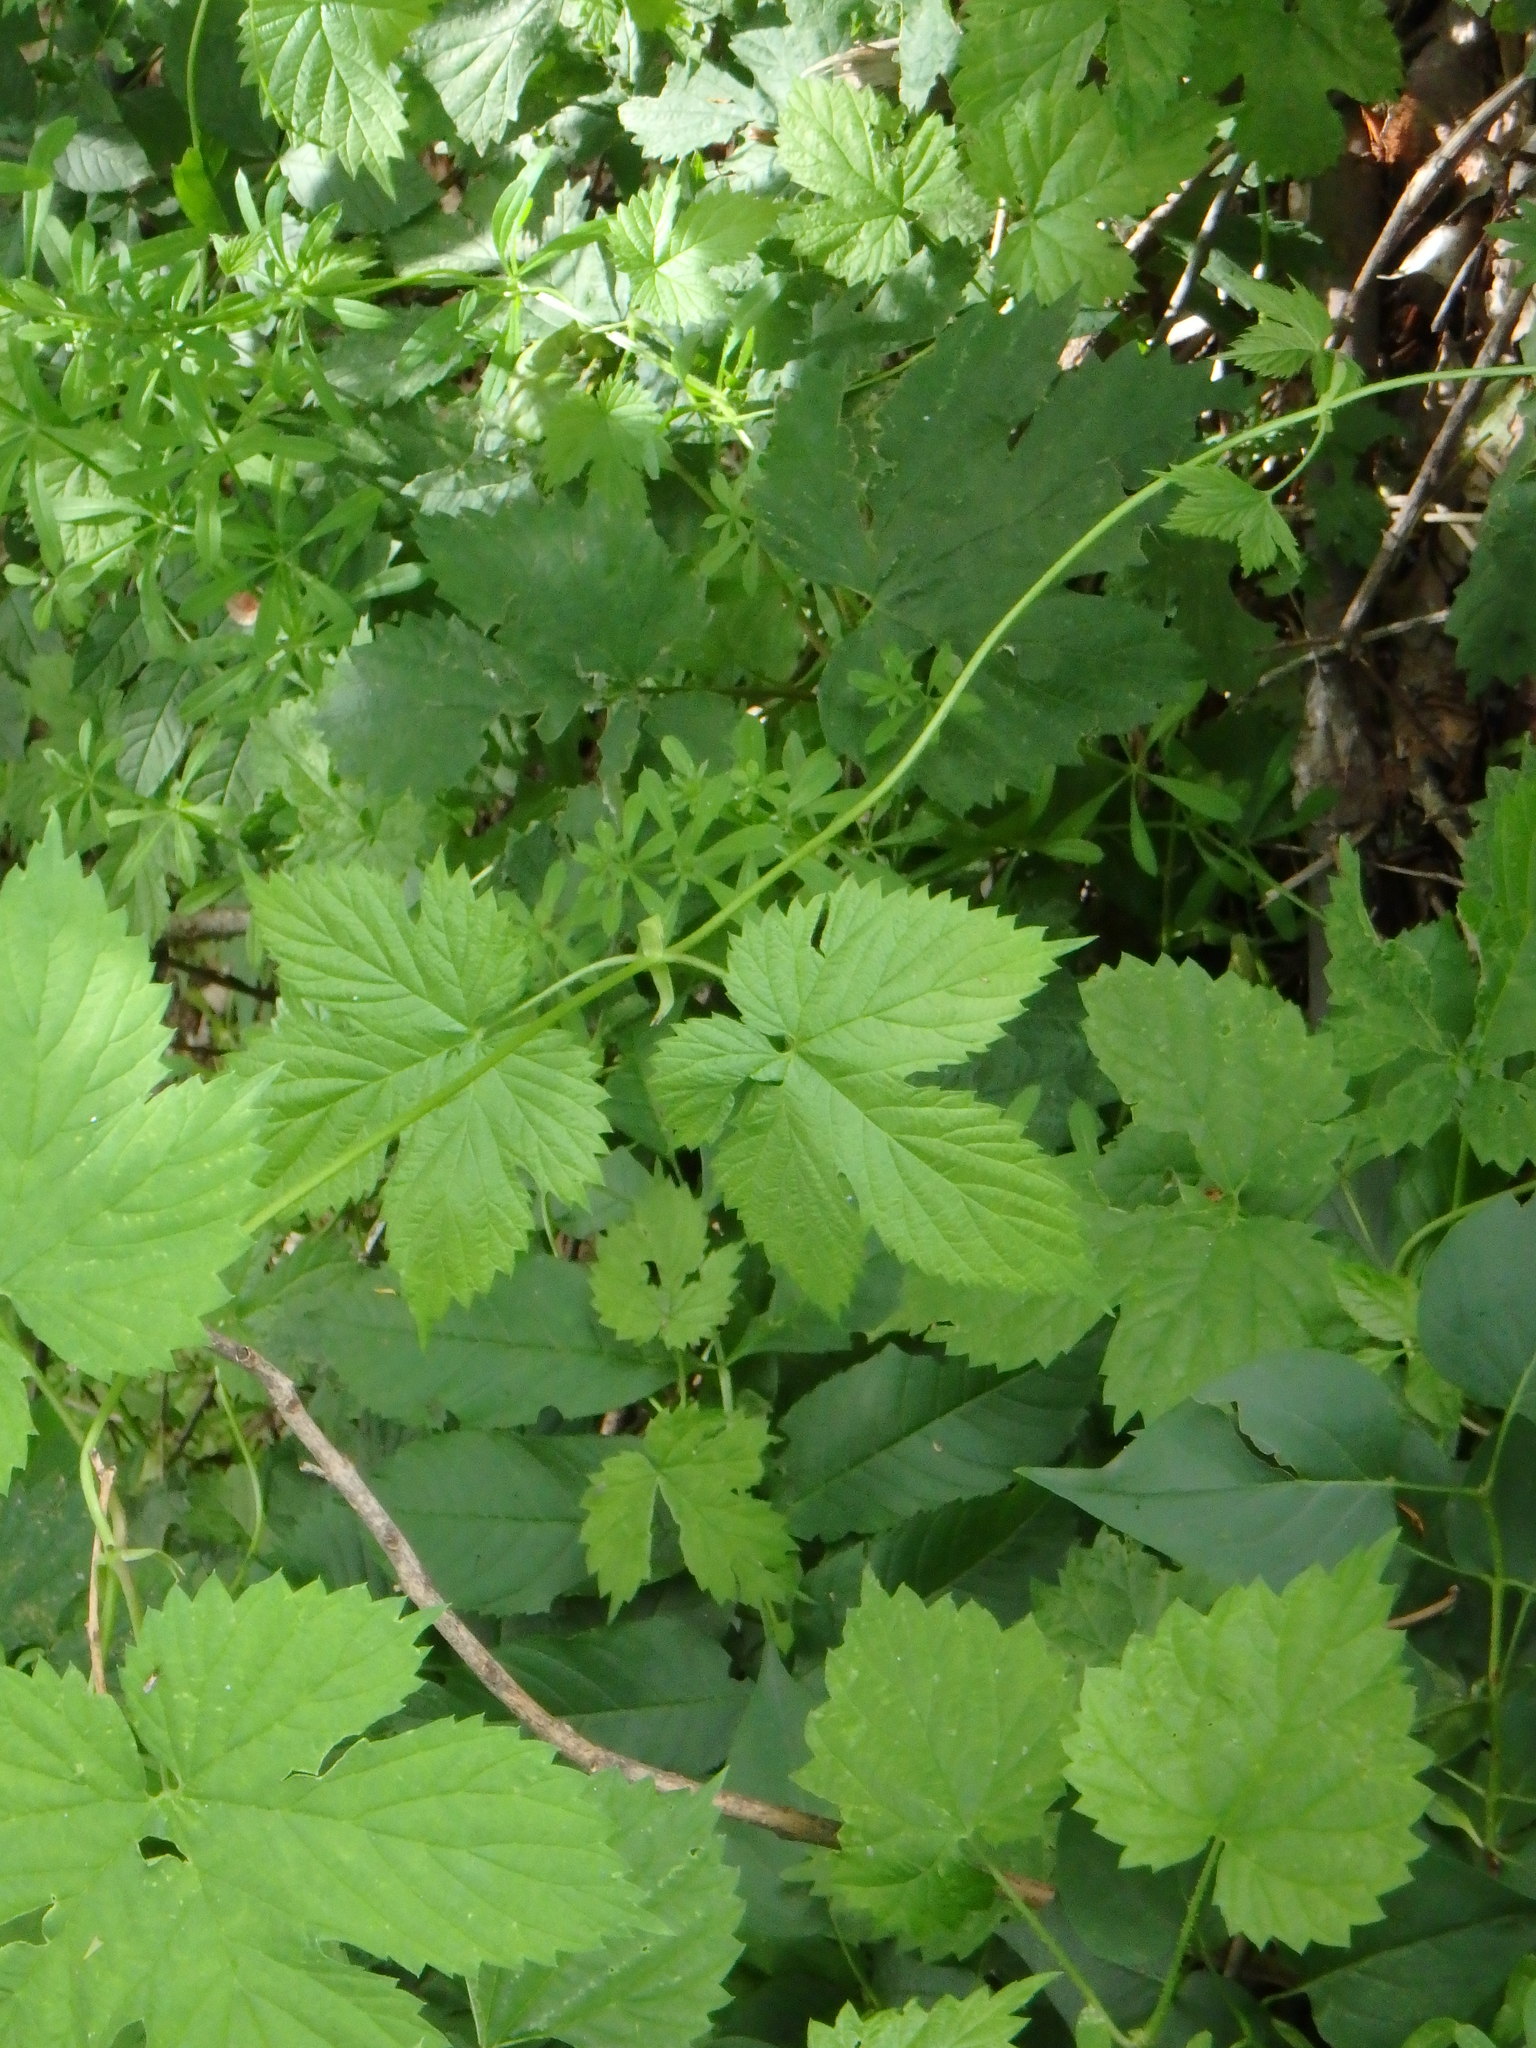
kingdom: Plantae
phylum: Tracheophyta
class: Magnoliopsida
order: Rosales
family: Cannabaceae
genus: Humulus
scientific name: Humulus lupulus
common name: Hop
